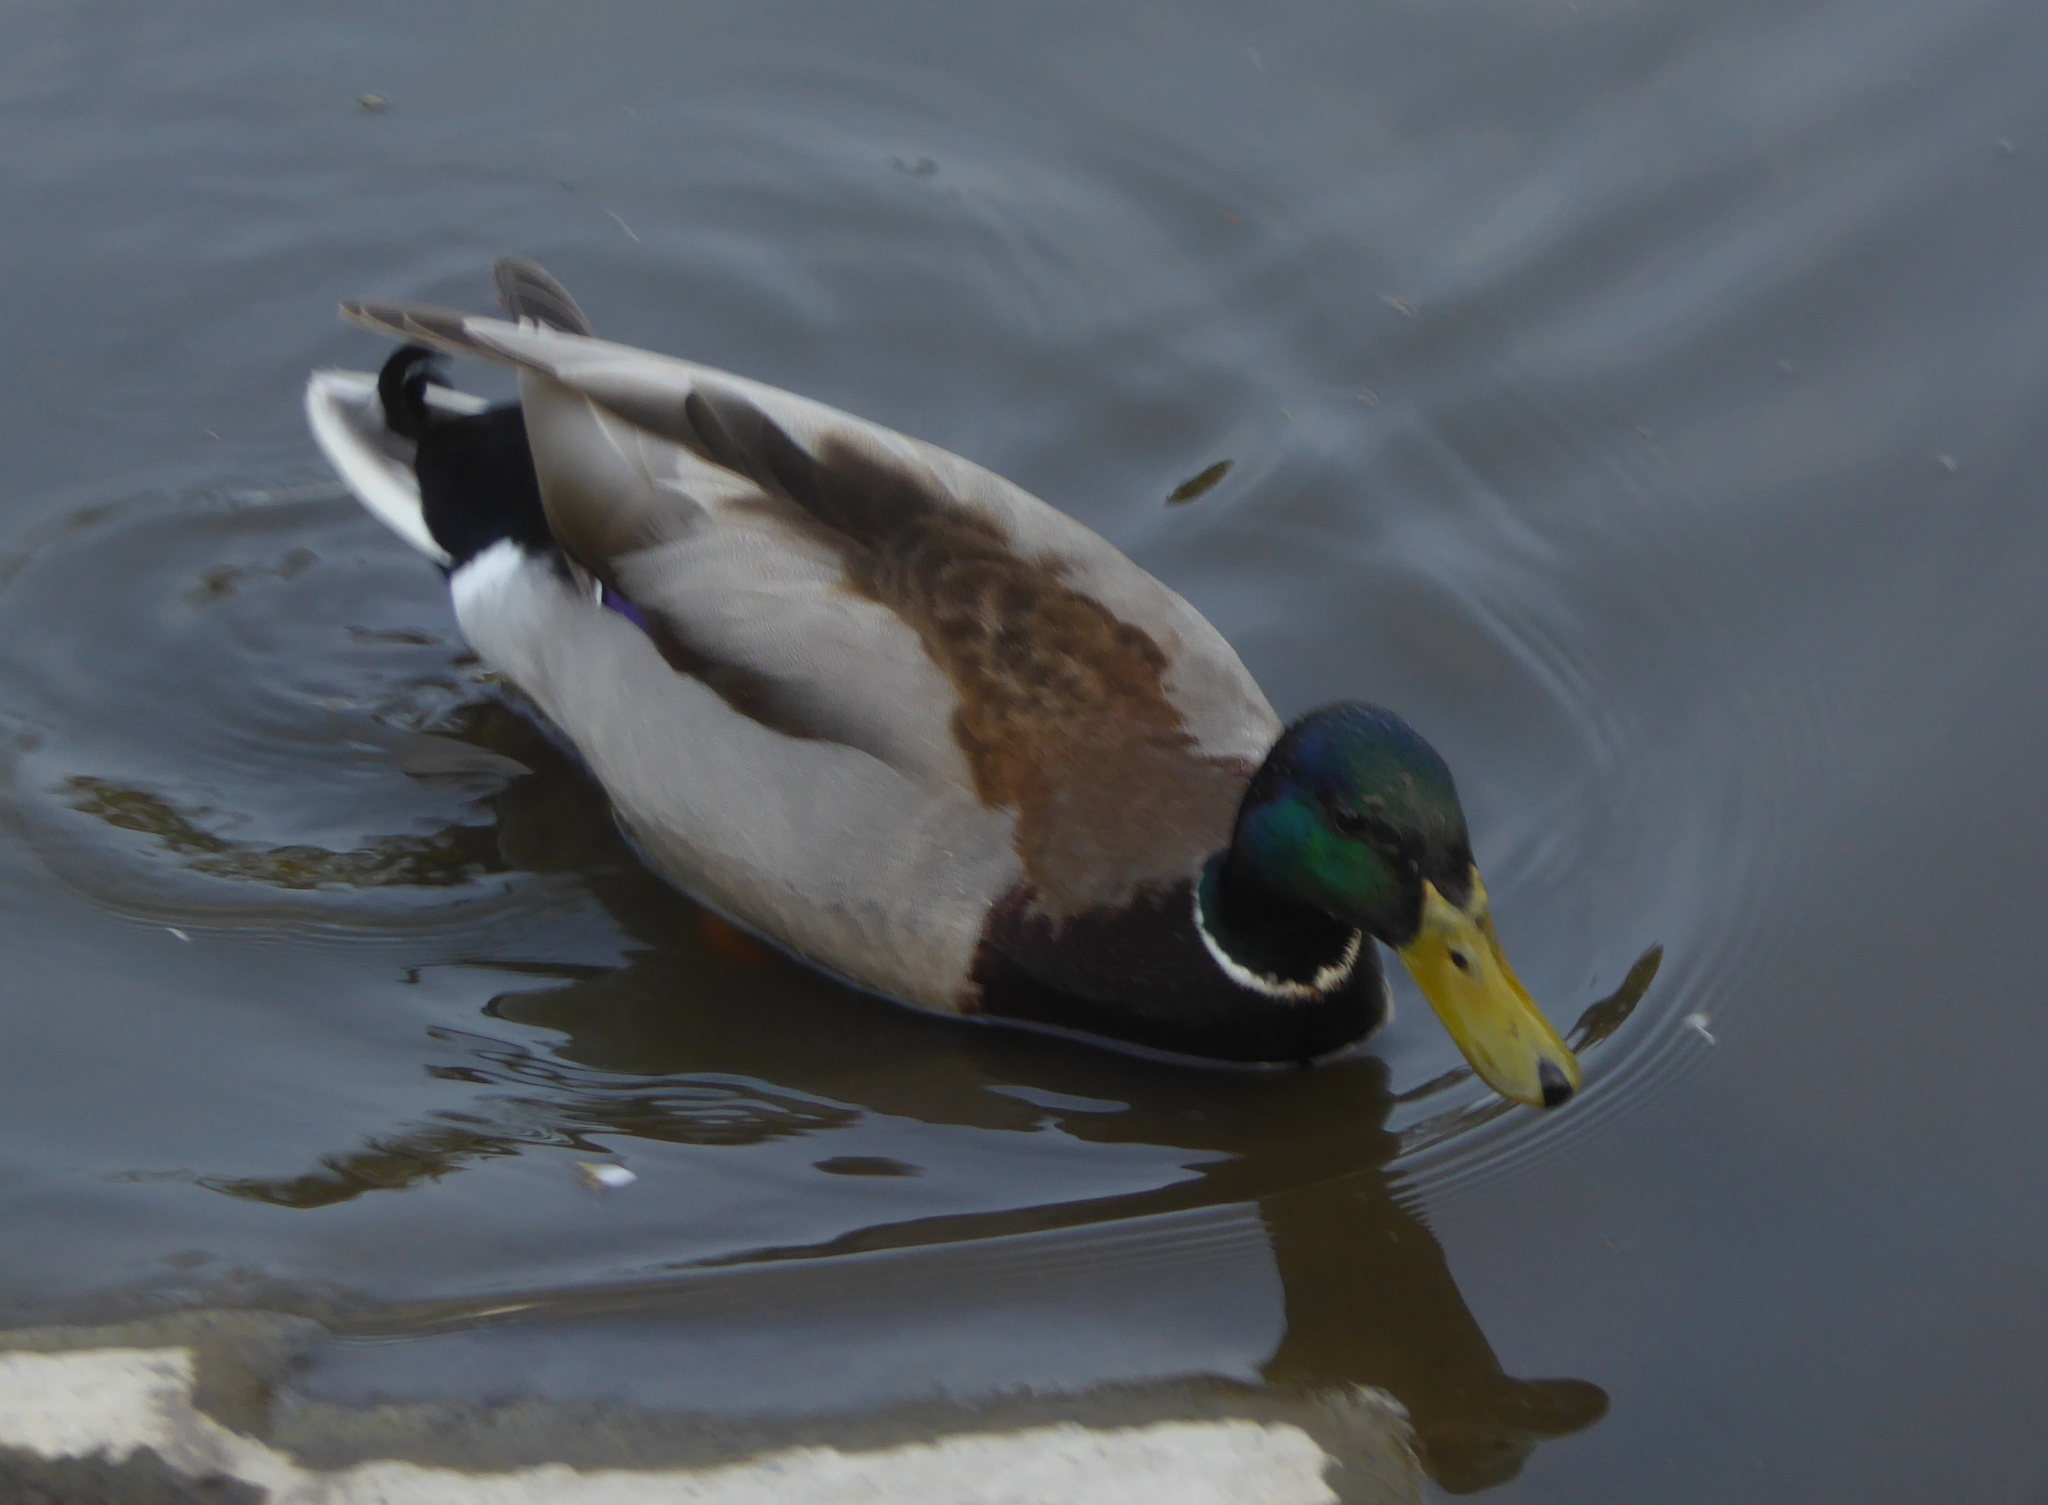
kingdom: Animalia
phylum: Chordata
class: Aves
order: Anseriformes
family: Anatidae
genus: Anas
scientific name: Anas platyrhynchos
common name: Mallard
